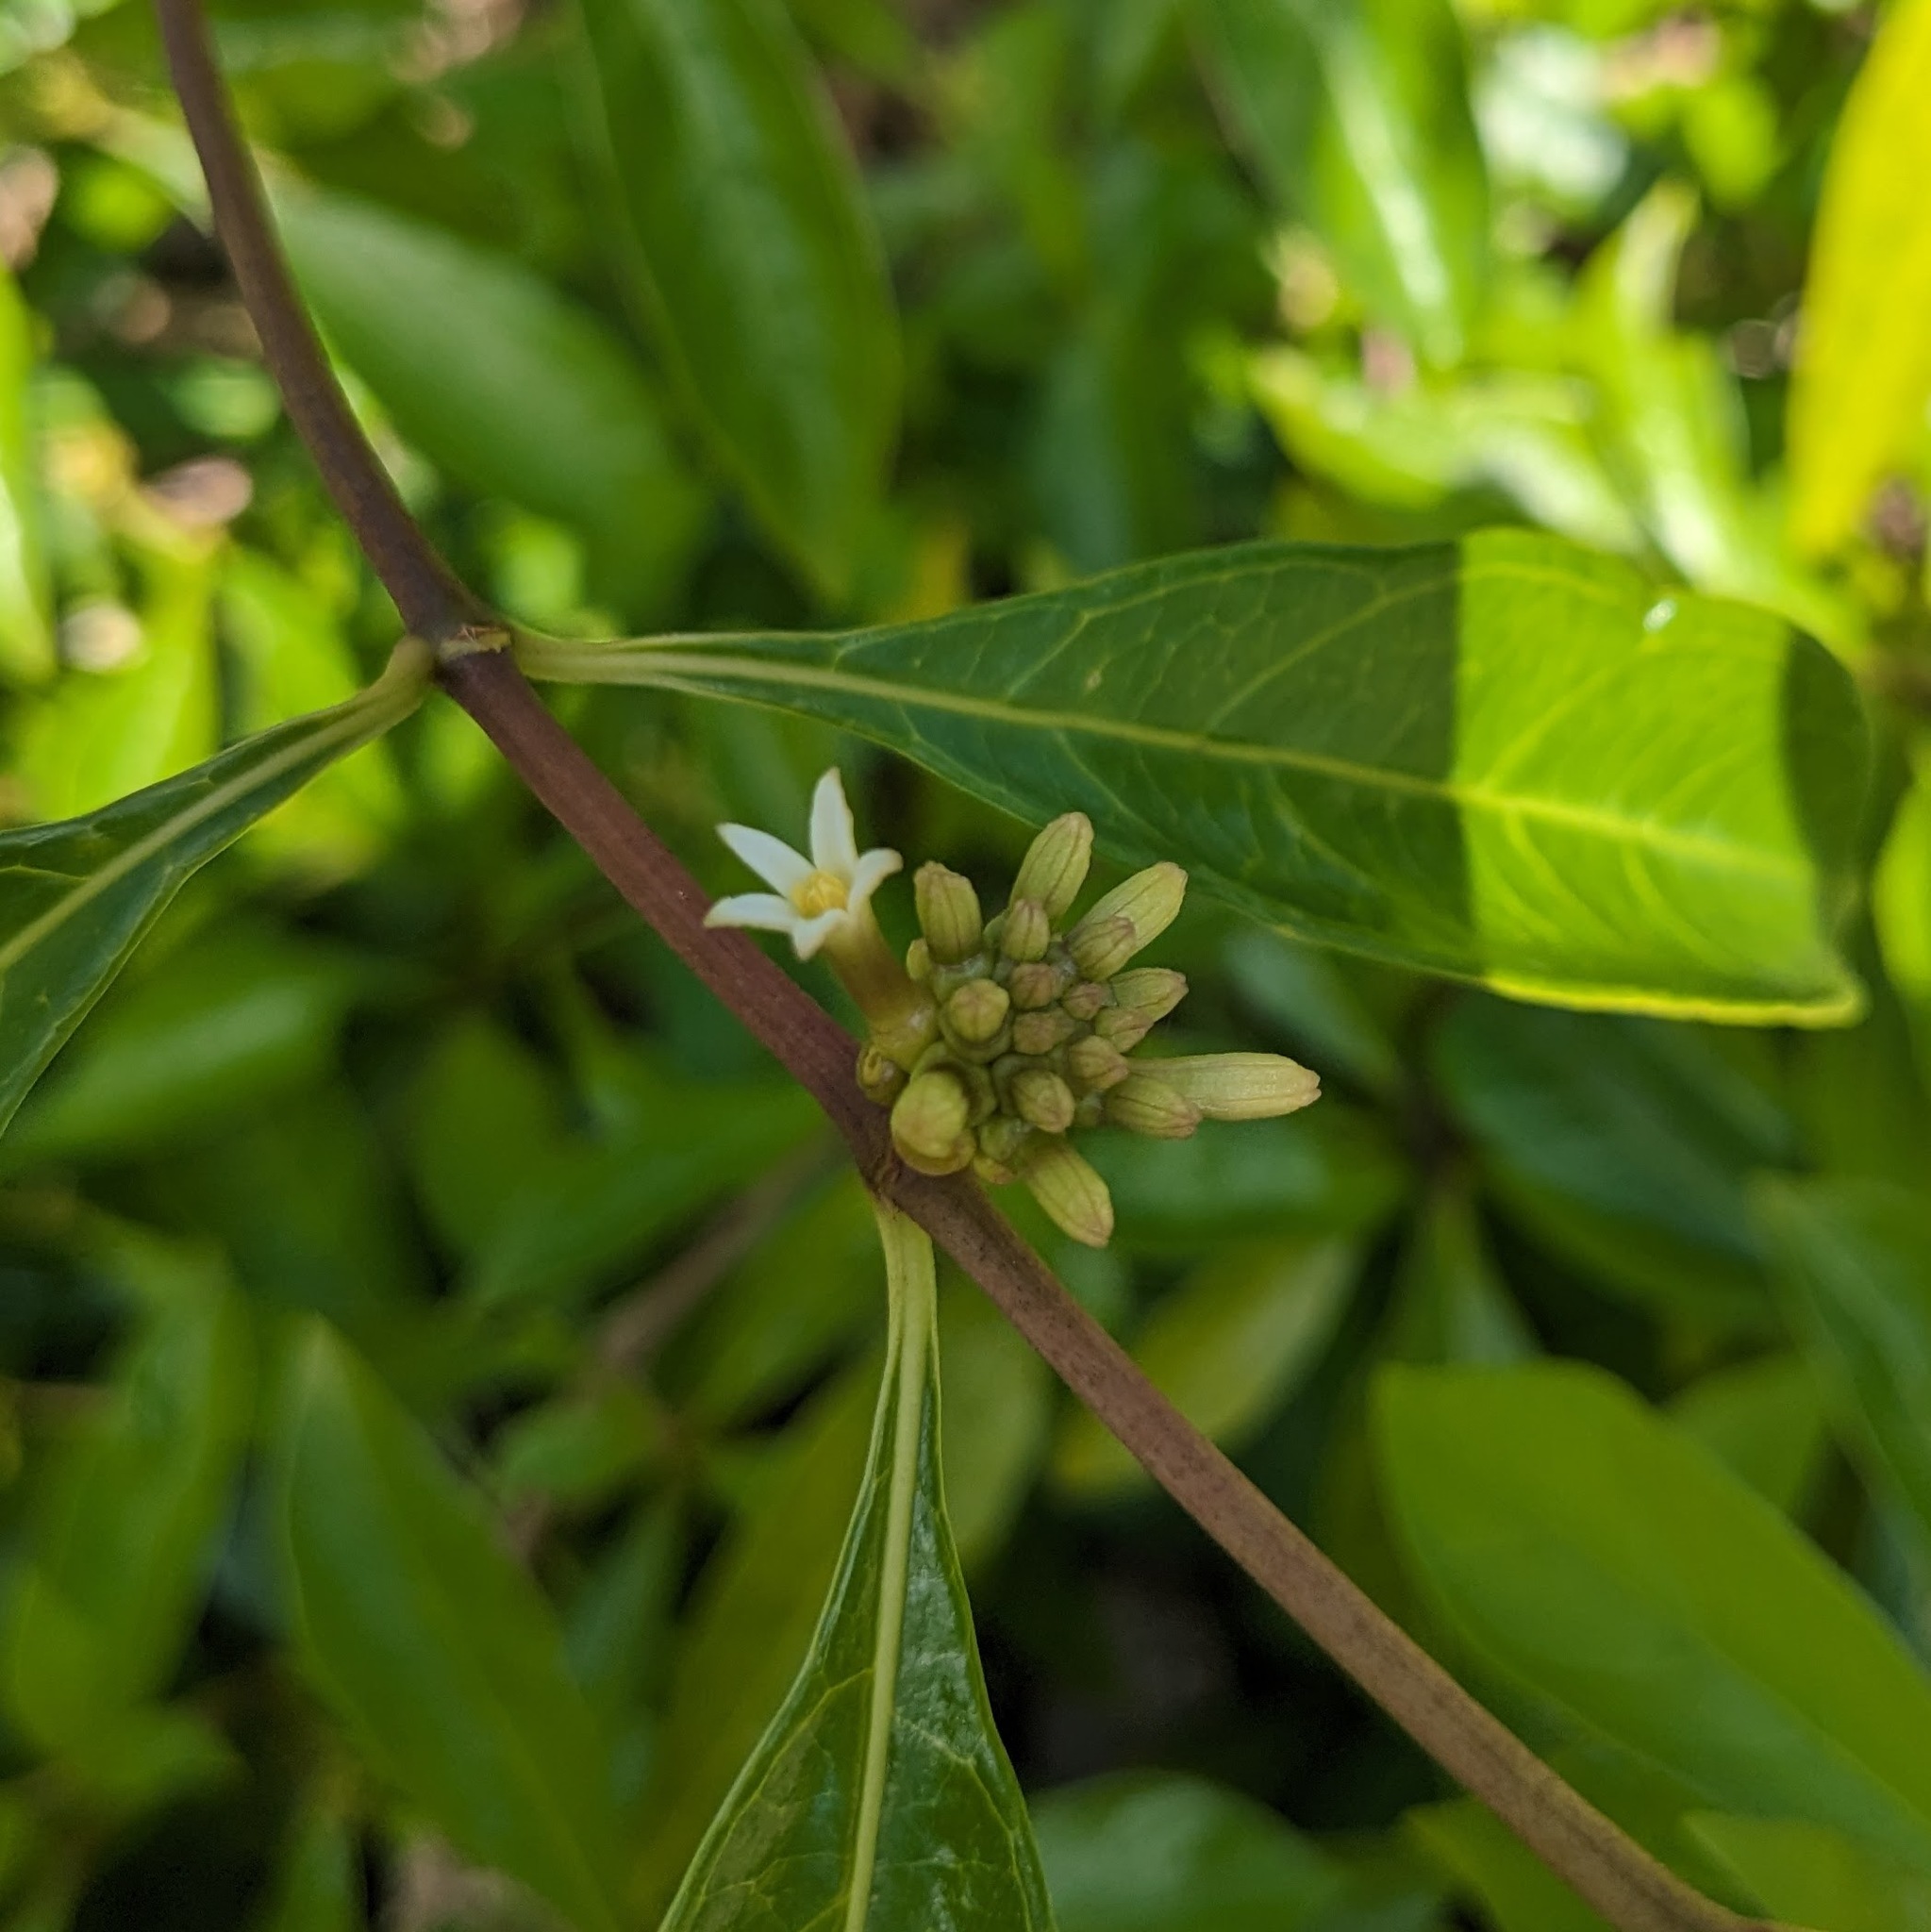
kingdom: Plantae
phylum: Tracheophyta
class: Magnoliopsida
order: Gentianales
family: Rubiaceae
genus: Morinda
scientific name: Morinda royoc
